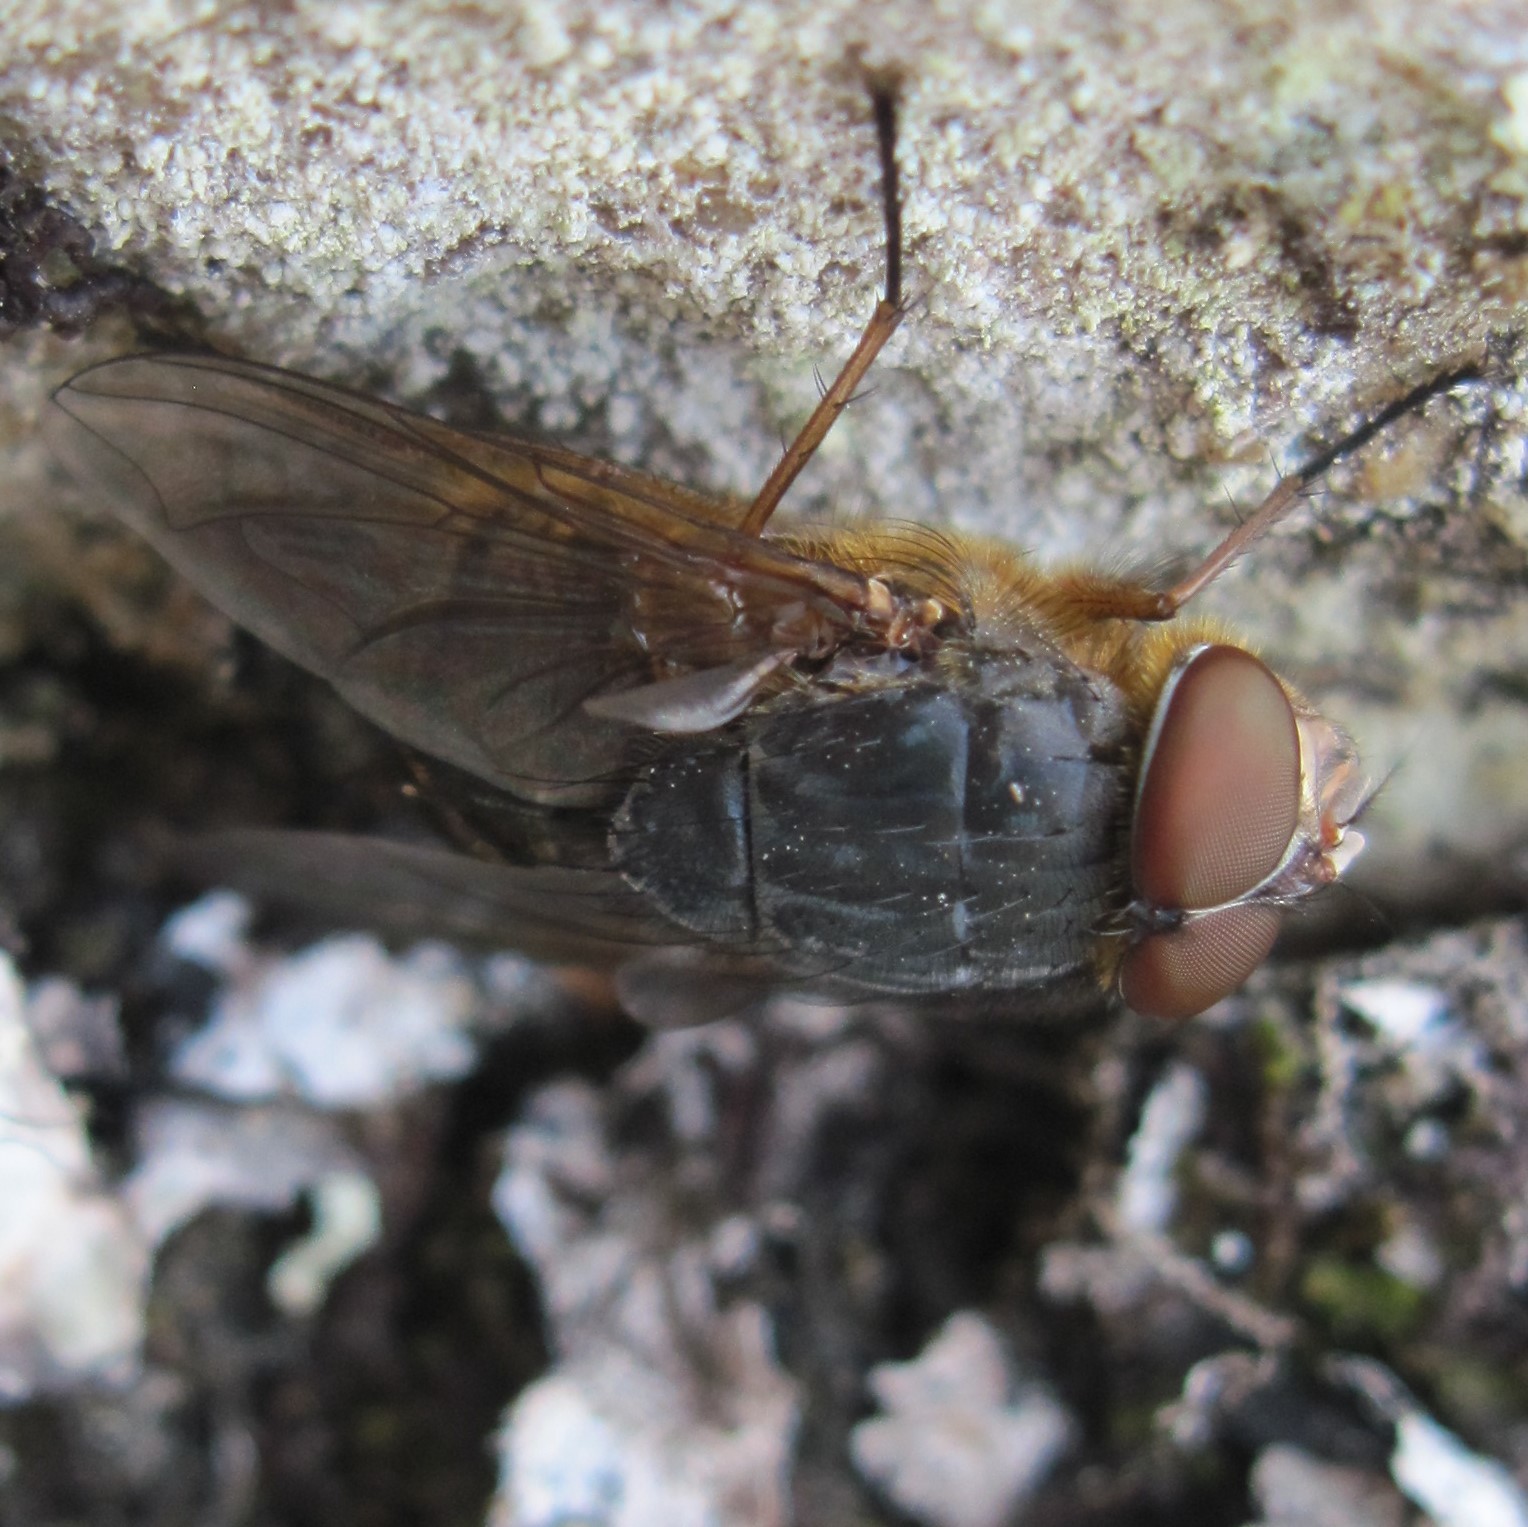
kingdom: Animalia
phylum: Arthropoda
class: Insecta
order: Diptera
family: Calliphoridae
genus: Calliphora
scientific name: Calliphora stygia
